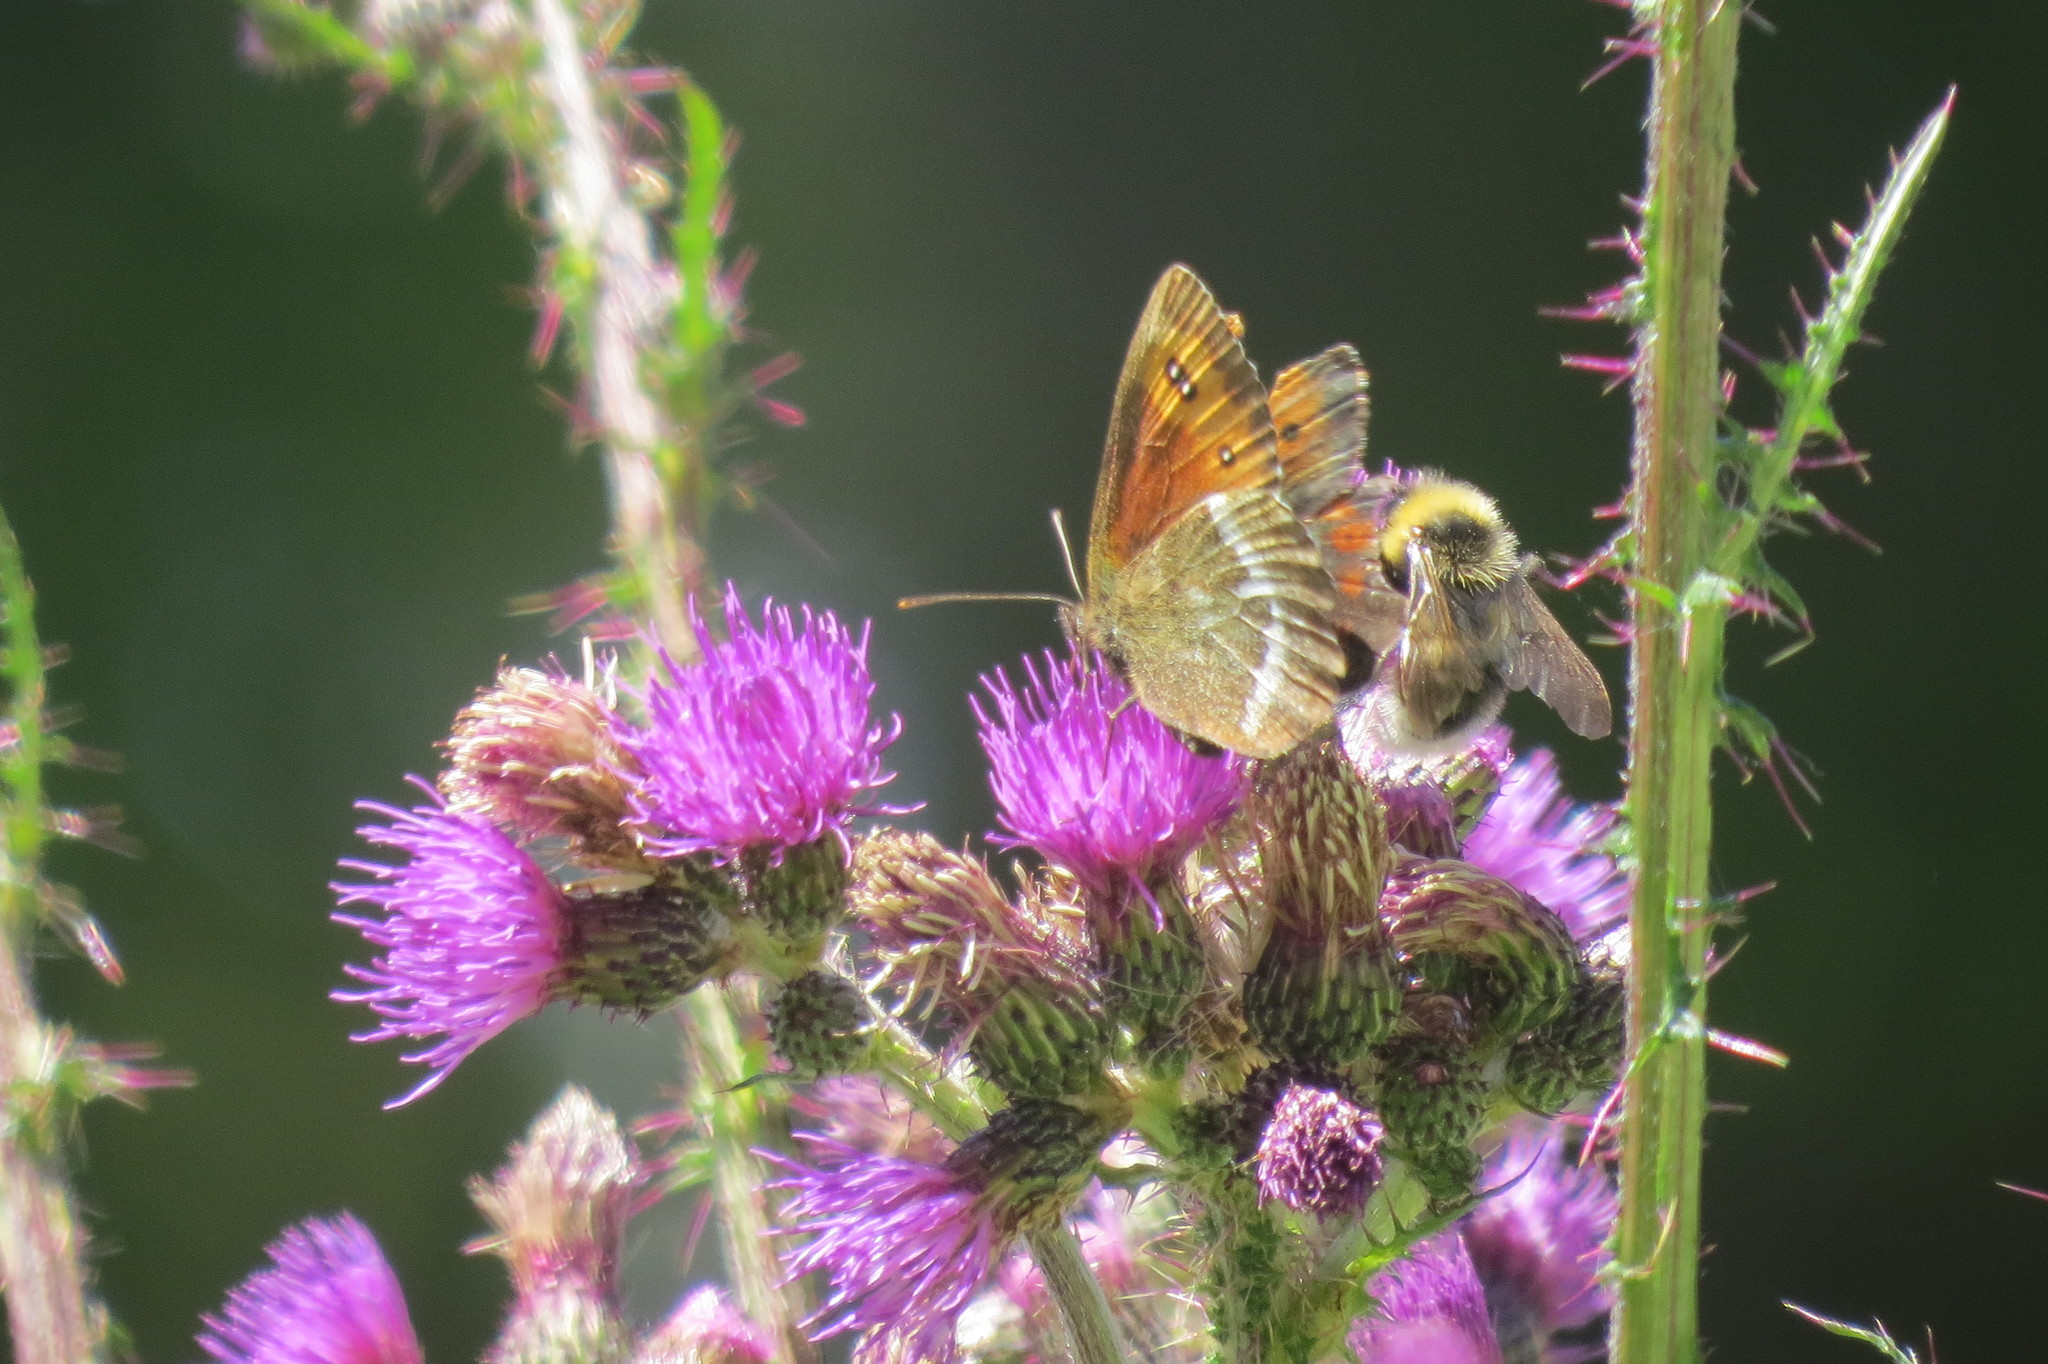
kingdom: Animalia
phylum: Arthropoda
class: Insecta
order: Lepidoptera
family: Nymphalidae
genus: Erebia
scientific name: Erebia euryale
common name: Large ringlet
